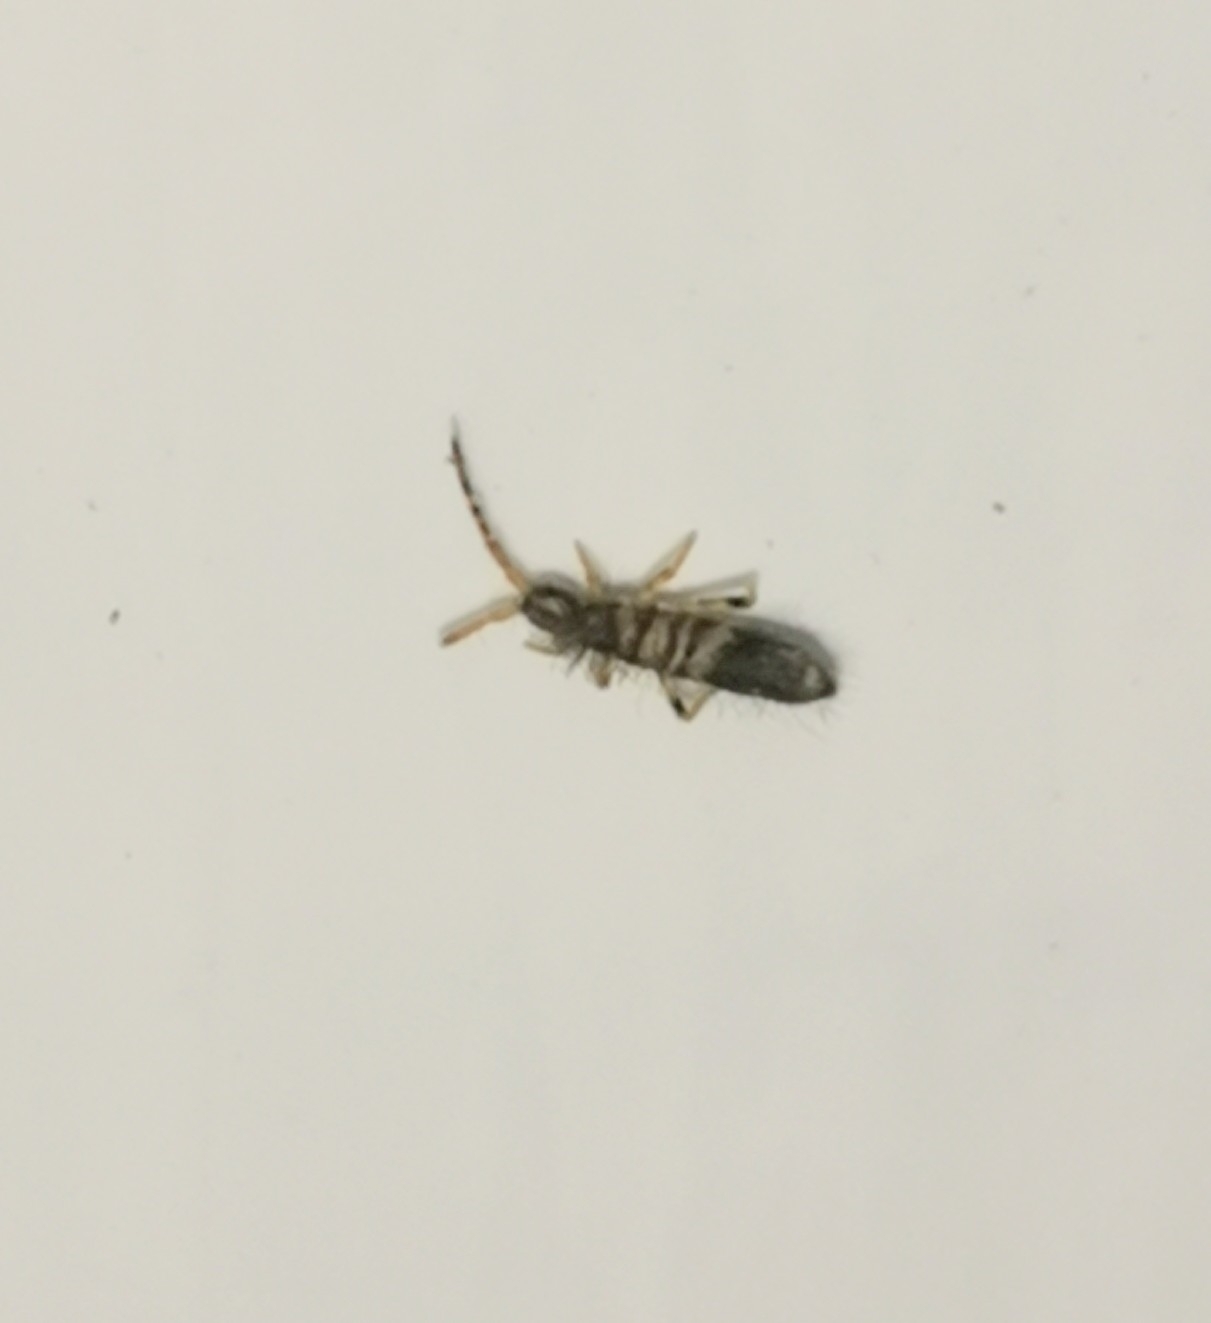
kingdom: Animalia
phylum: Arthropoda
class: Collembola
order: Entomobryomorpha
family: Entomobryidae
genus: Entomobrya
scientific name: Entomobrya superba
